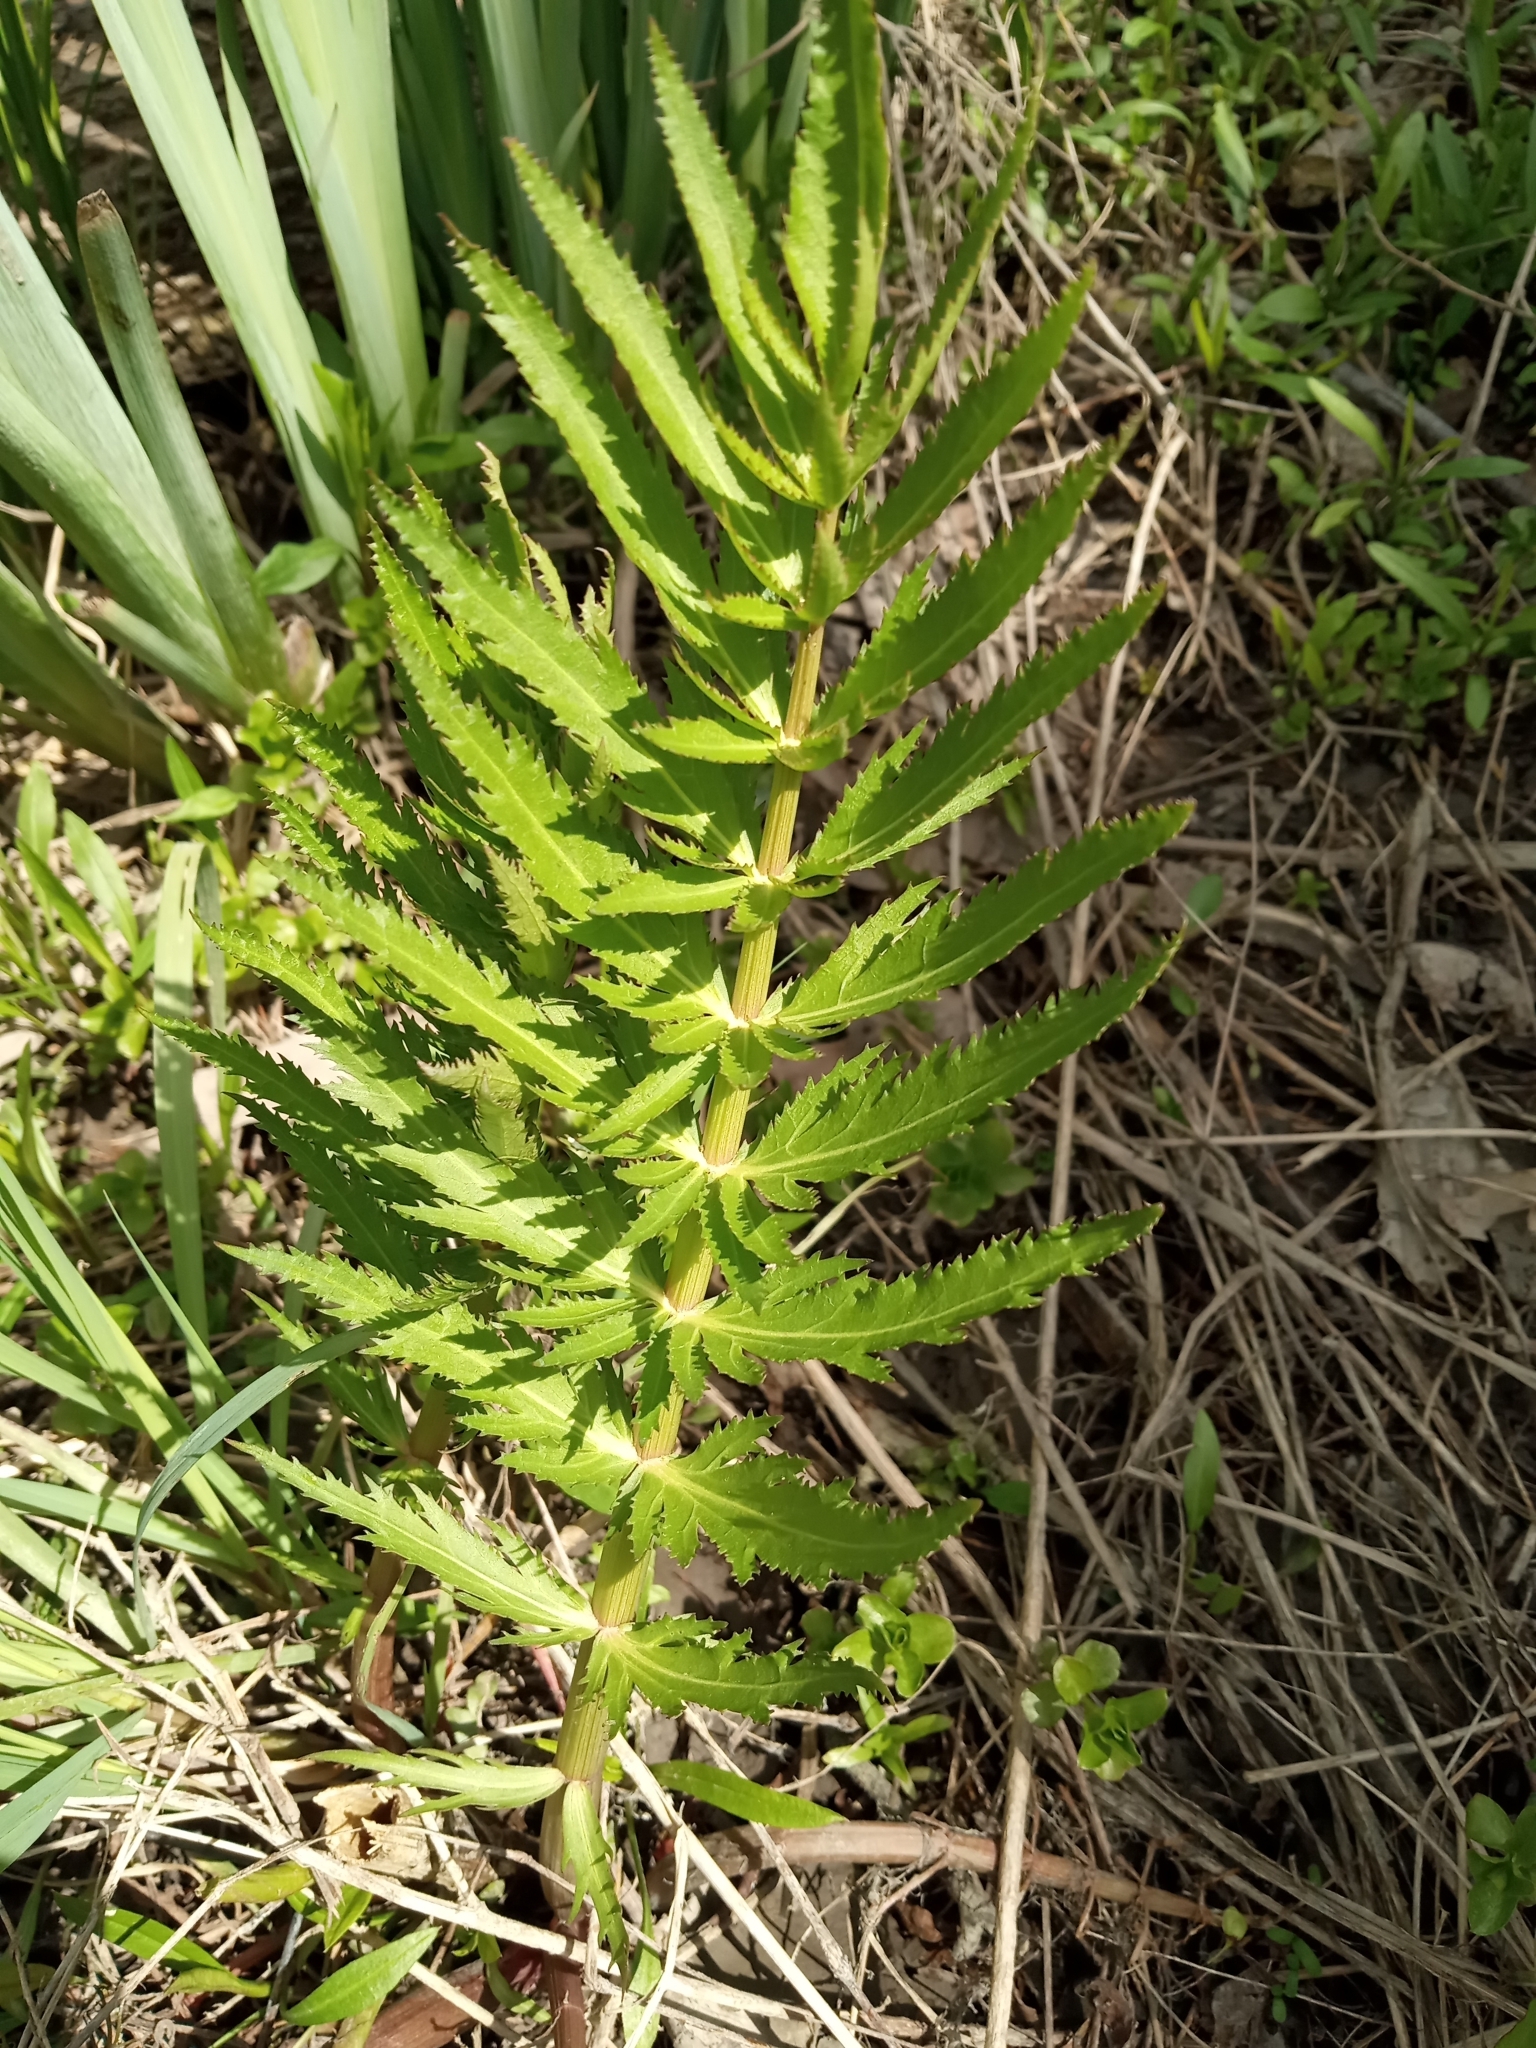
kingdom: Plantae
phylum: Tracheophyta
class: Magnoliopsida
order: Apiales
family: Apiaceae
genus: Sium
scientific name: Sium suave
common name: Hemlock water-parsnip
